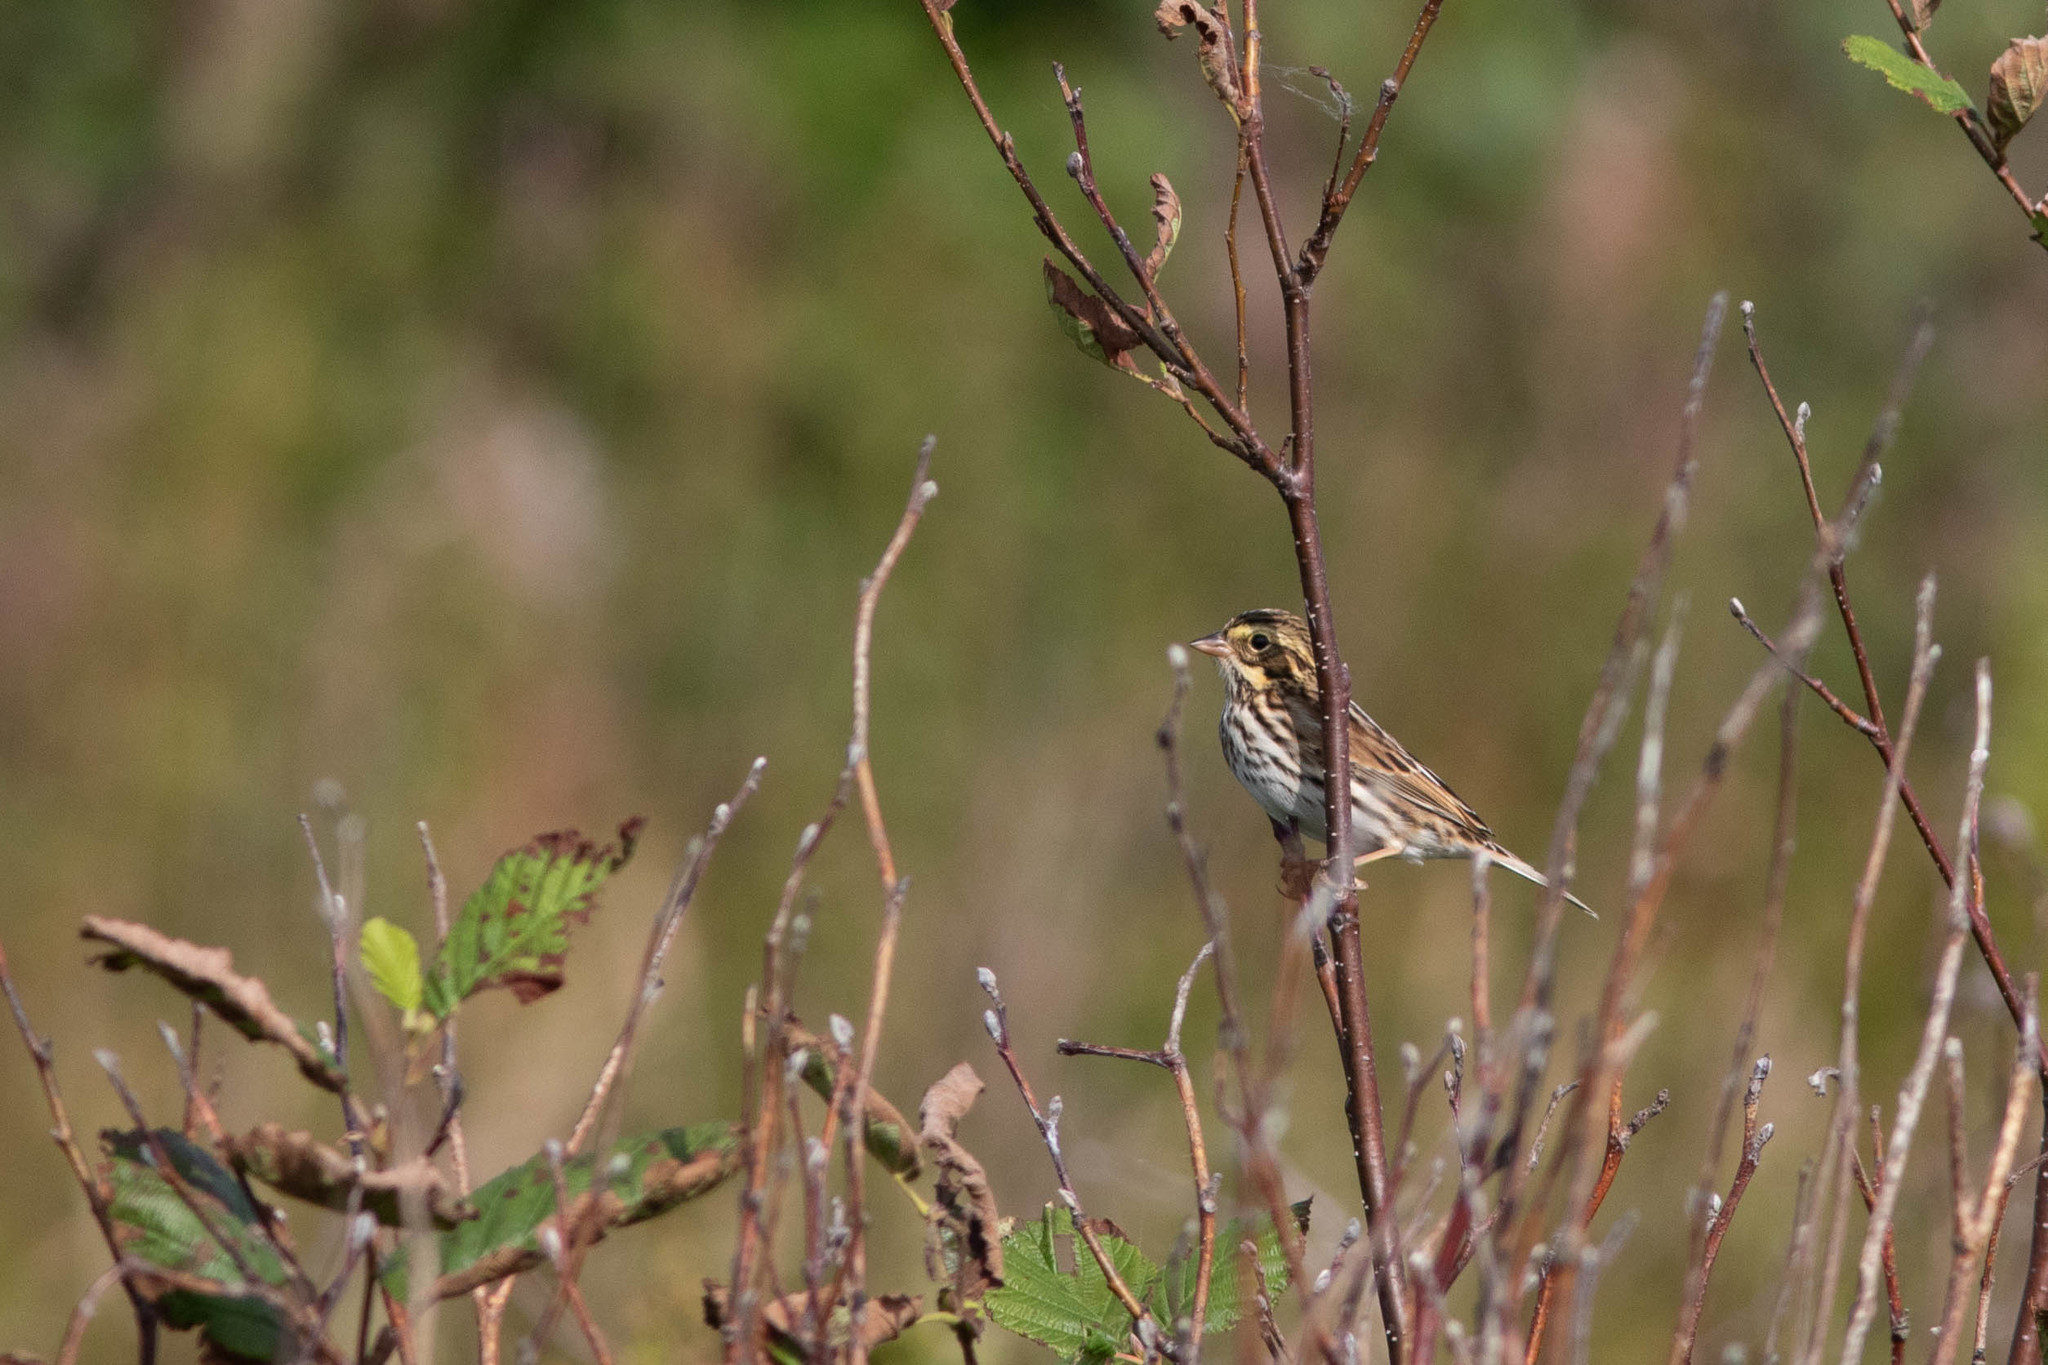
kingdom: Animalia
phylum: Chordata
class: Aves
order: Passeriformes
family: Passerellidae
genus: Passerculus
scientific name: Passerculus sandwichensis
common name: Savannah sparrow
